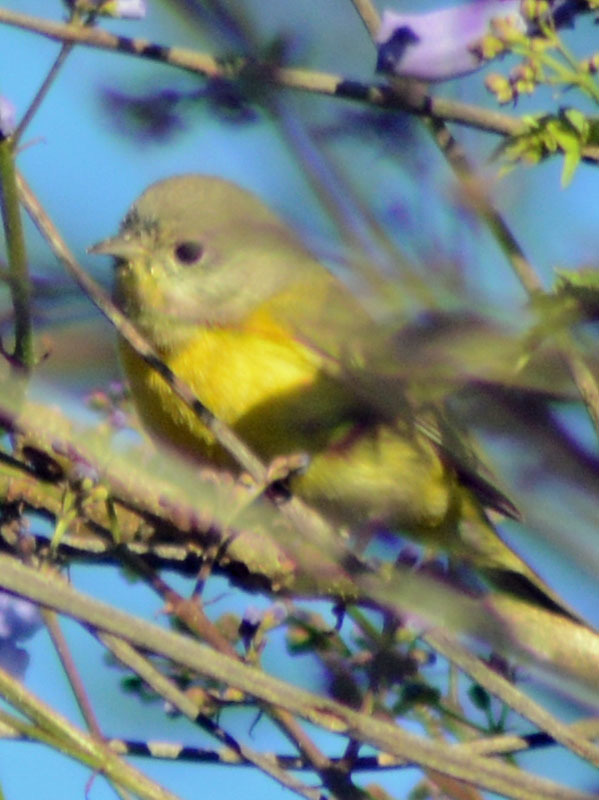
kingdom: Animalia
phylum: Chordata
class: Aves
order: Passeriformes
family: Parulidae
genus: Leiothlypis
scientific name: Leiothlypis ruficapilla
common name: Nashville warbler
